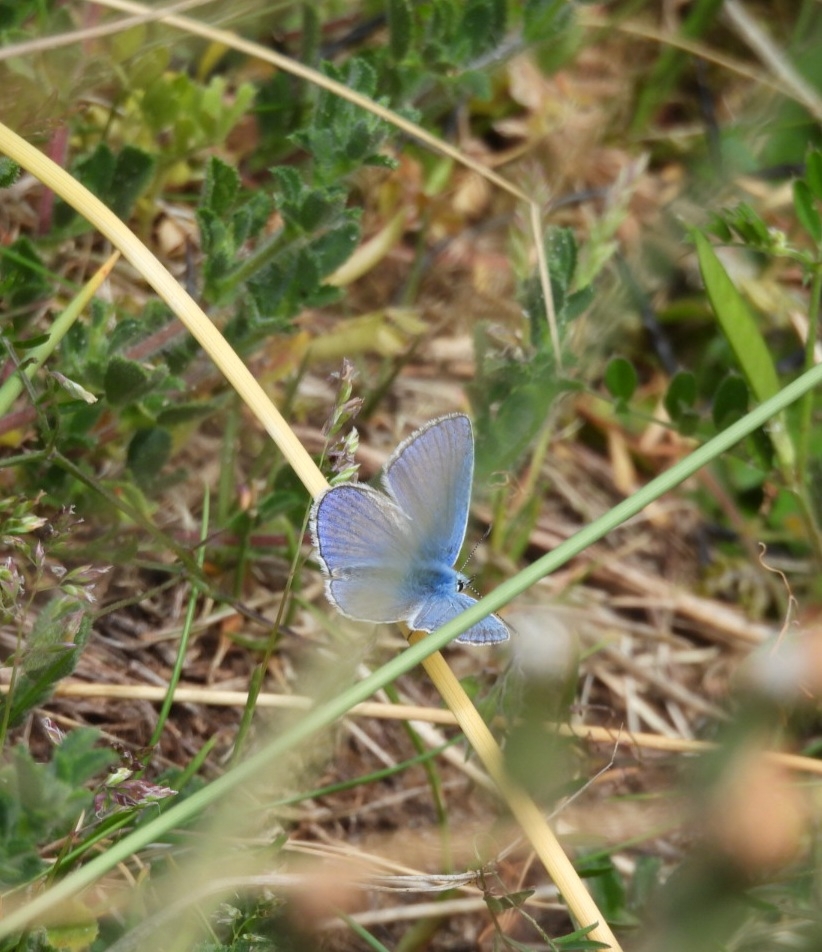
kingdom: Animalia
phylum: Arthropoda
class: Insecta
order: Lepidoptera
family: Lycaenidae
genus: Polyommatus
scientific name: Polyommatus icarus
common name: Common blue
